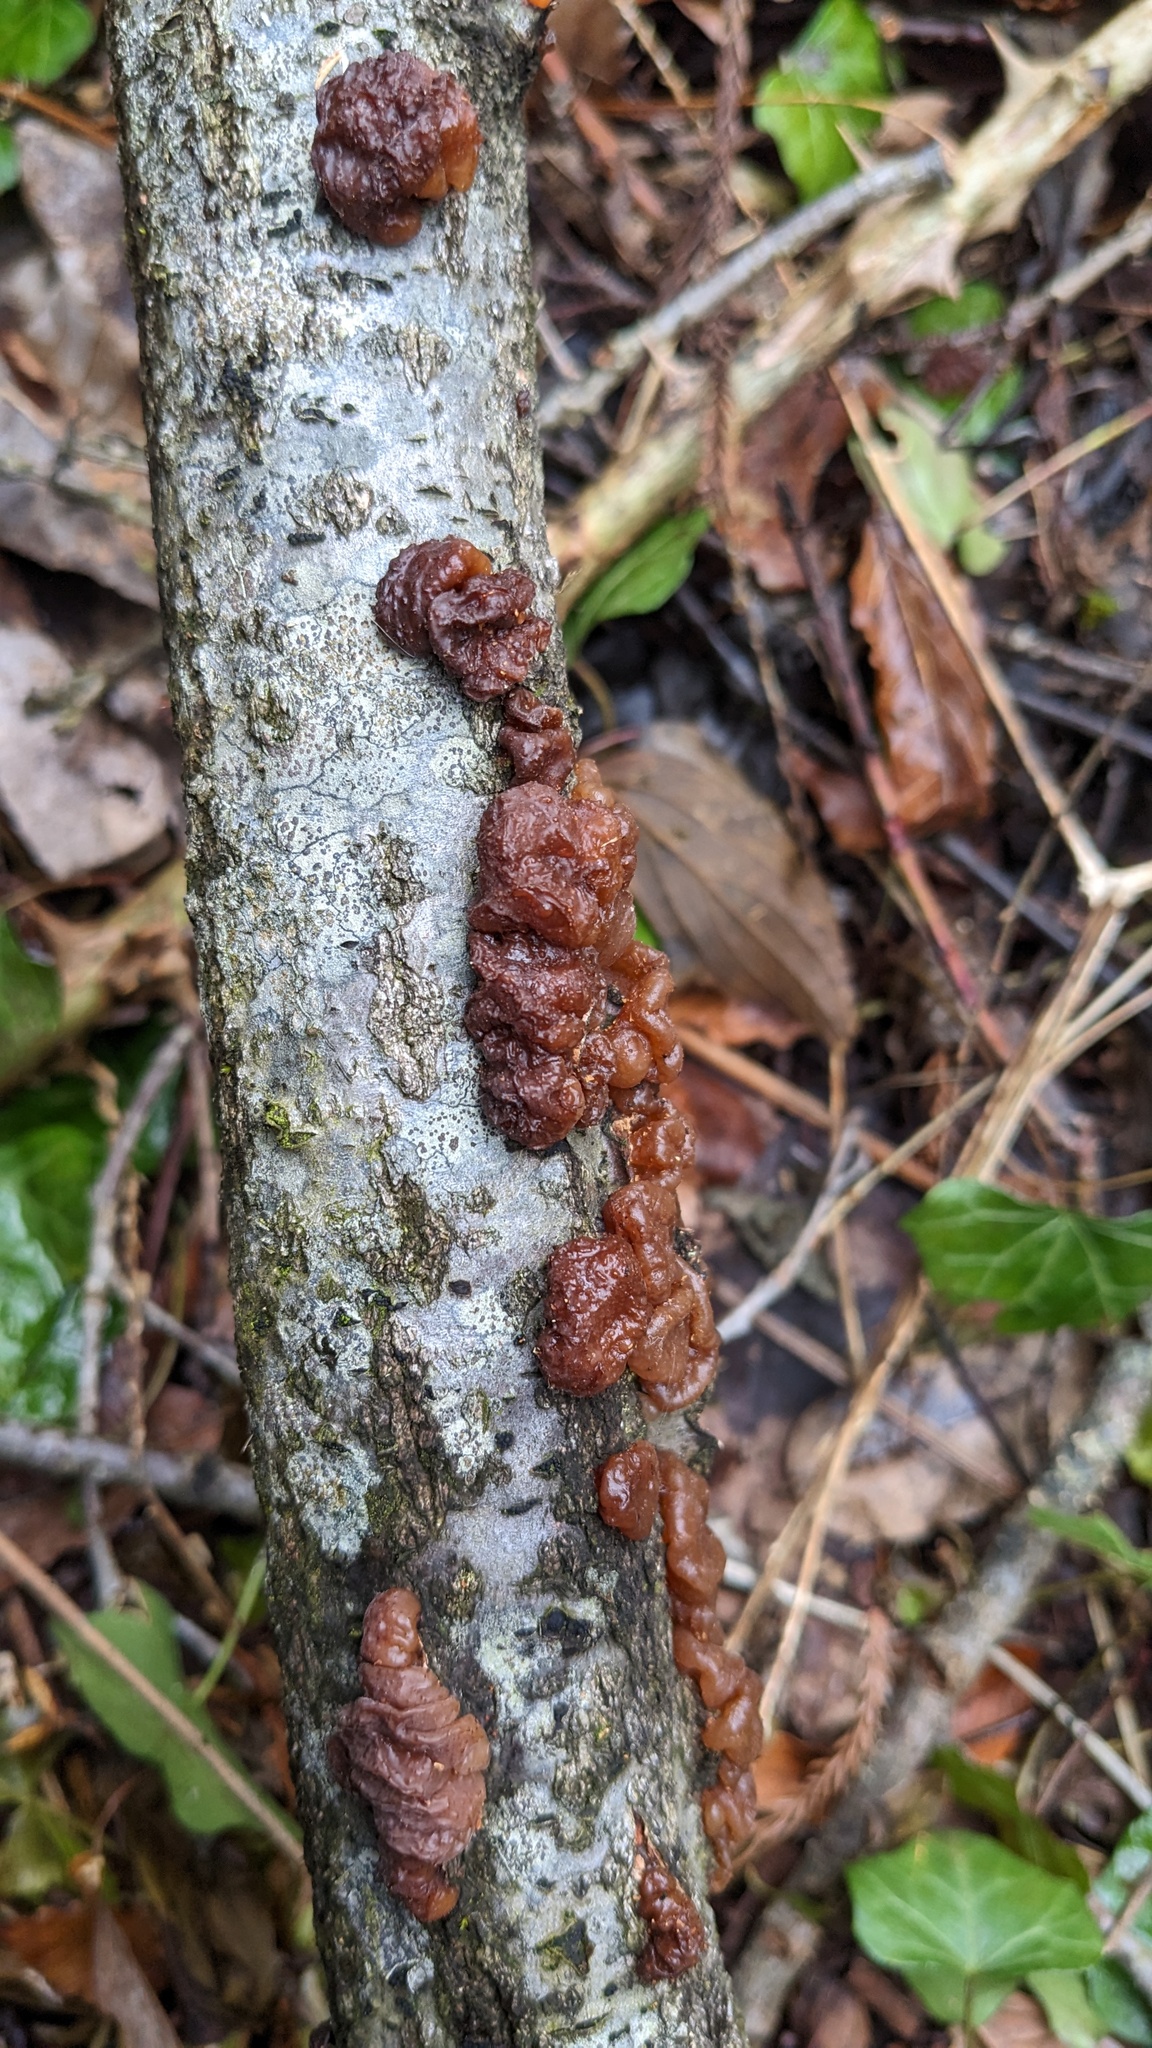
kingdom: Fungi
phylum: Basidiomycota
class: Agaricomycetes
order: Auriculariales
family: Auriculariaceae
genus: Exidia
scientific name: Exidia uvapassa
